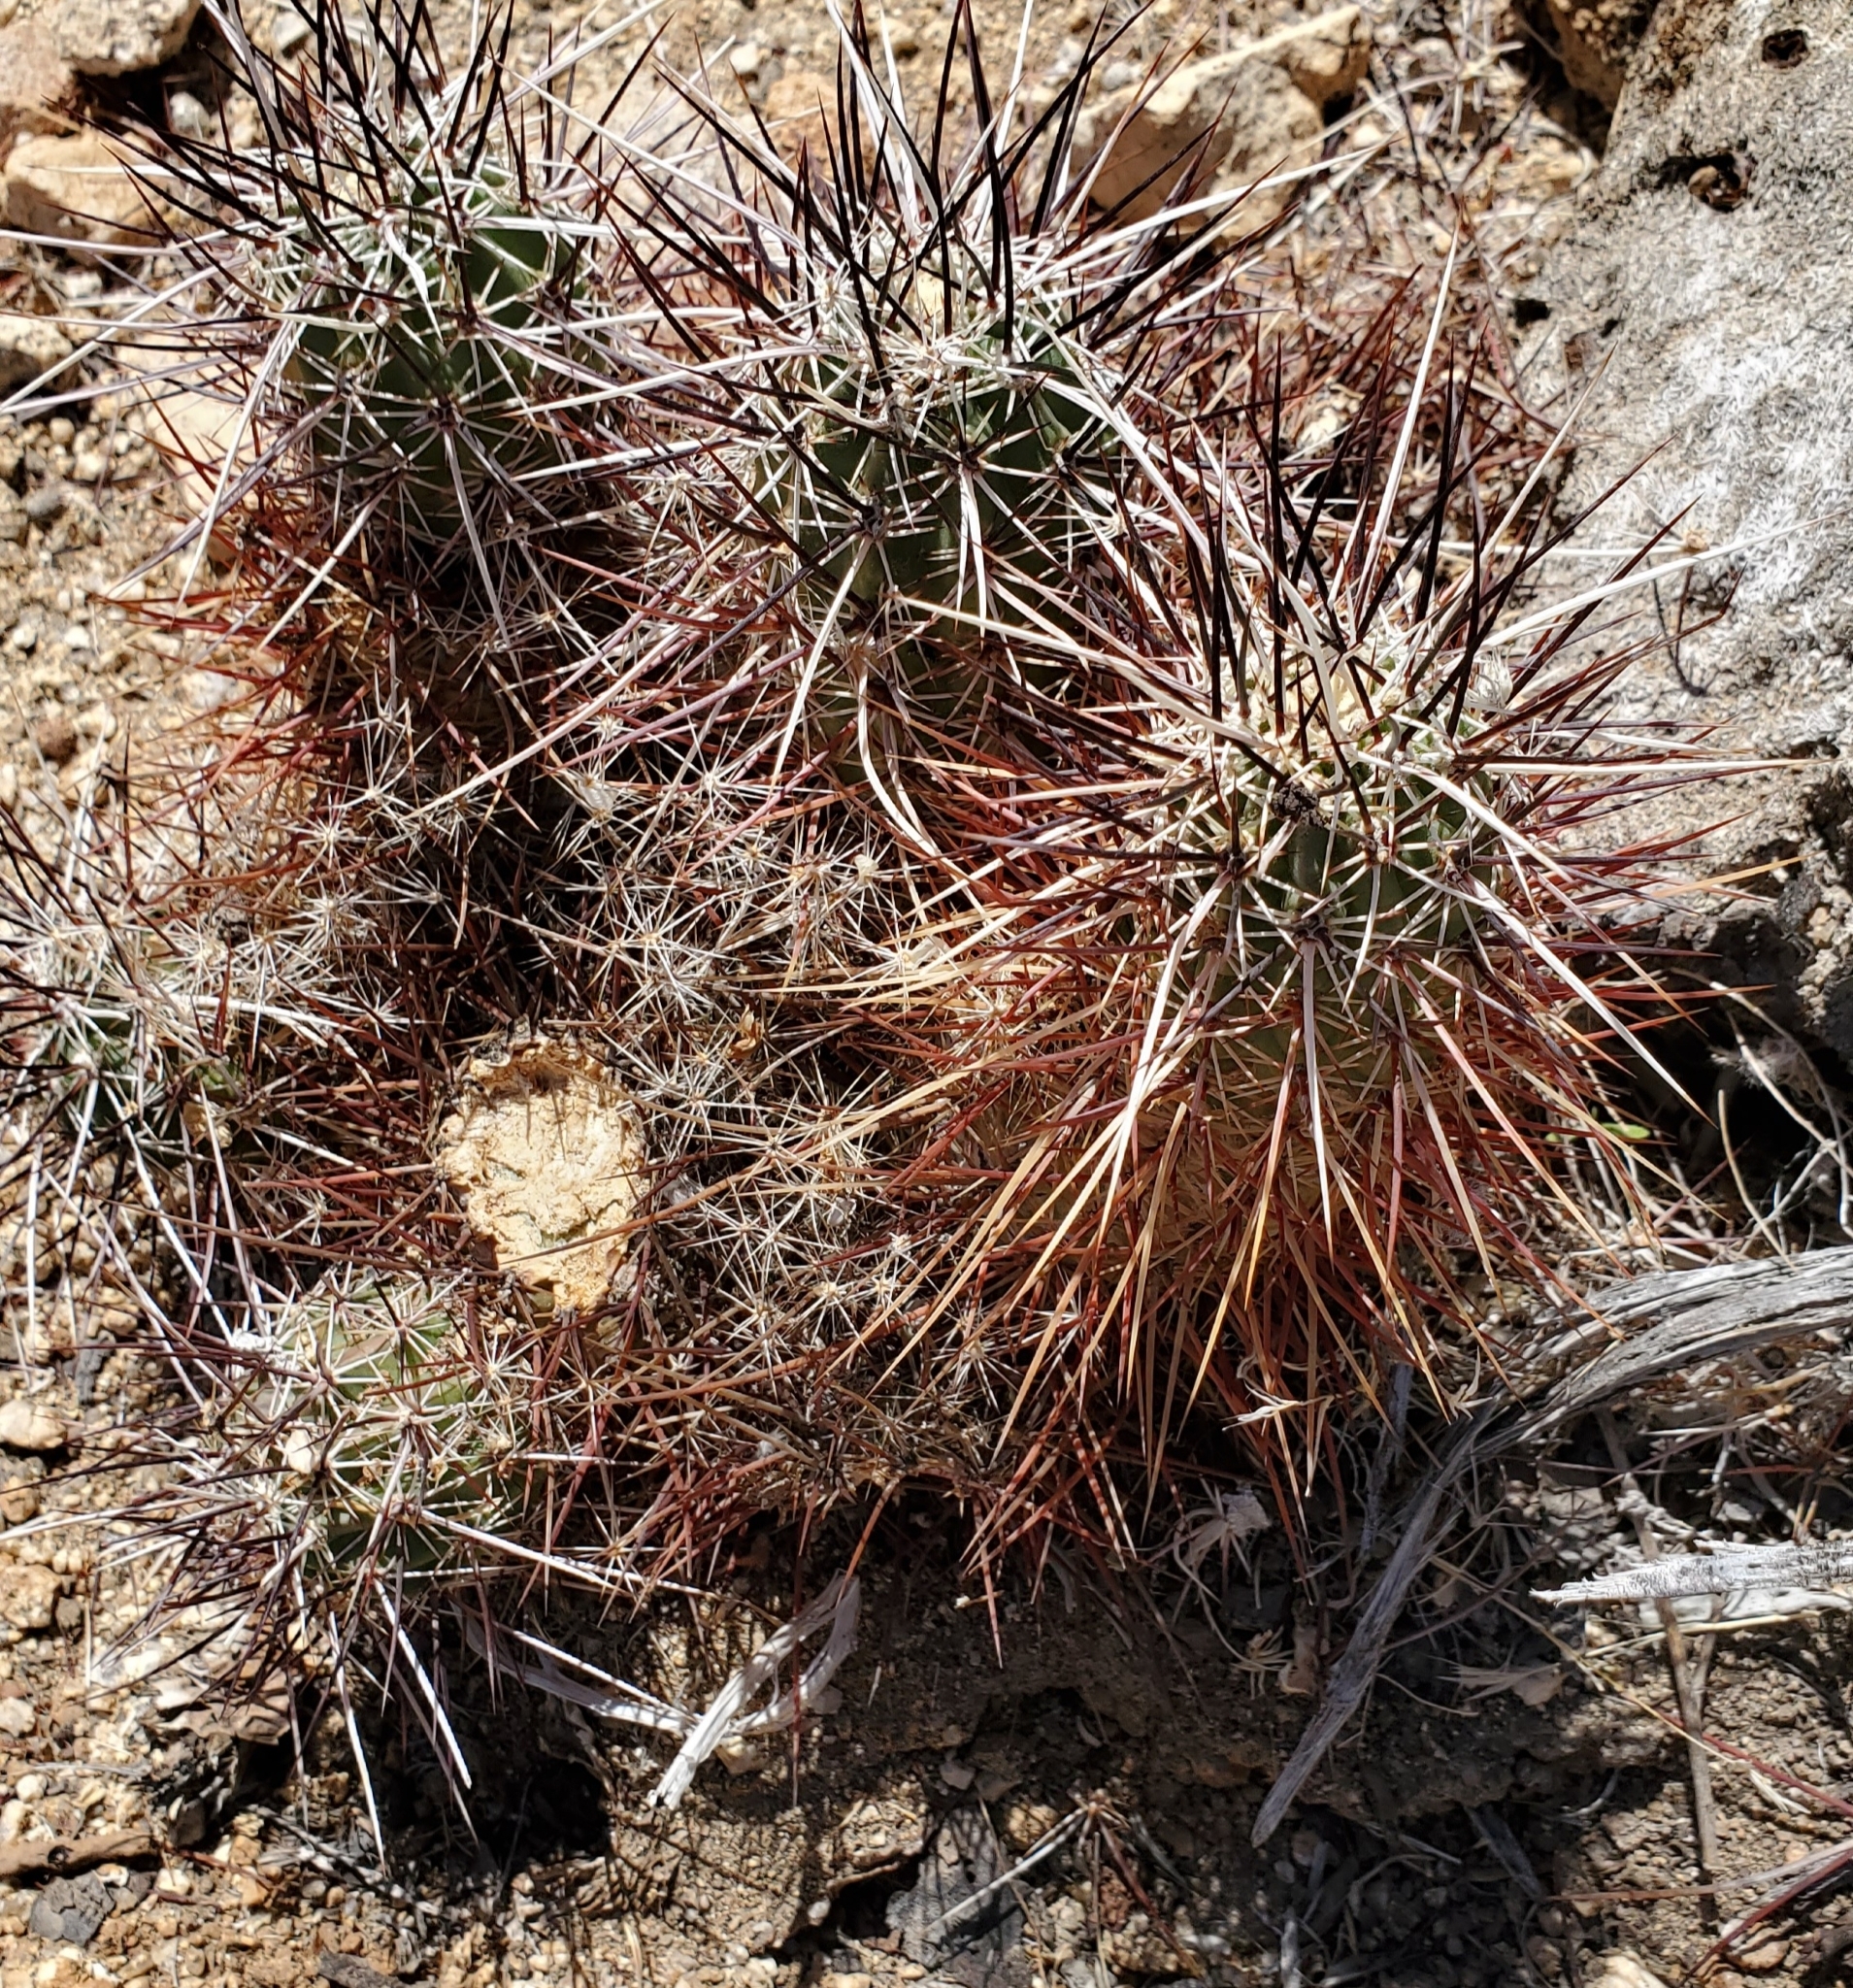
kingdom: Plantae
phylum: Tracheophyta
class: Magnoliopsida
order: Caryophyllales
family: Cactaceae
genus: Echinocereus
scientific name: Echinocereus engelmannii
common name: Engelmann's hedgehog cactus
